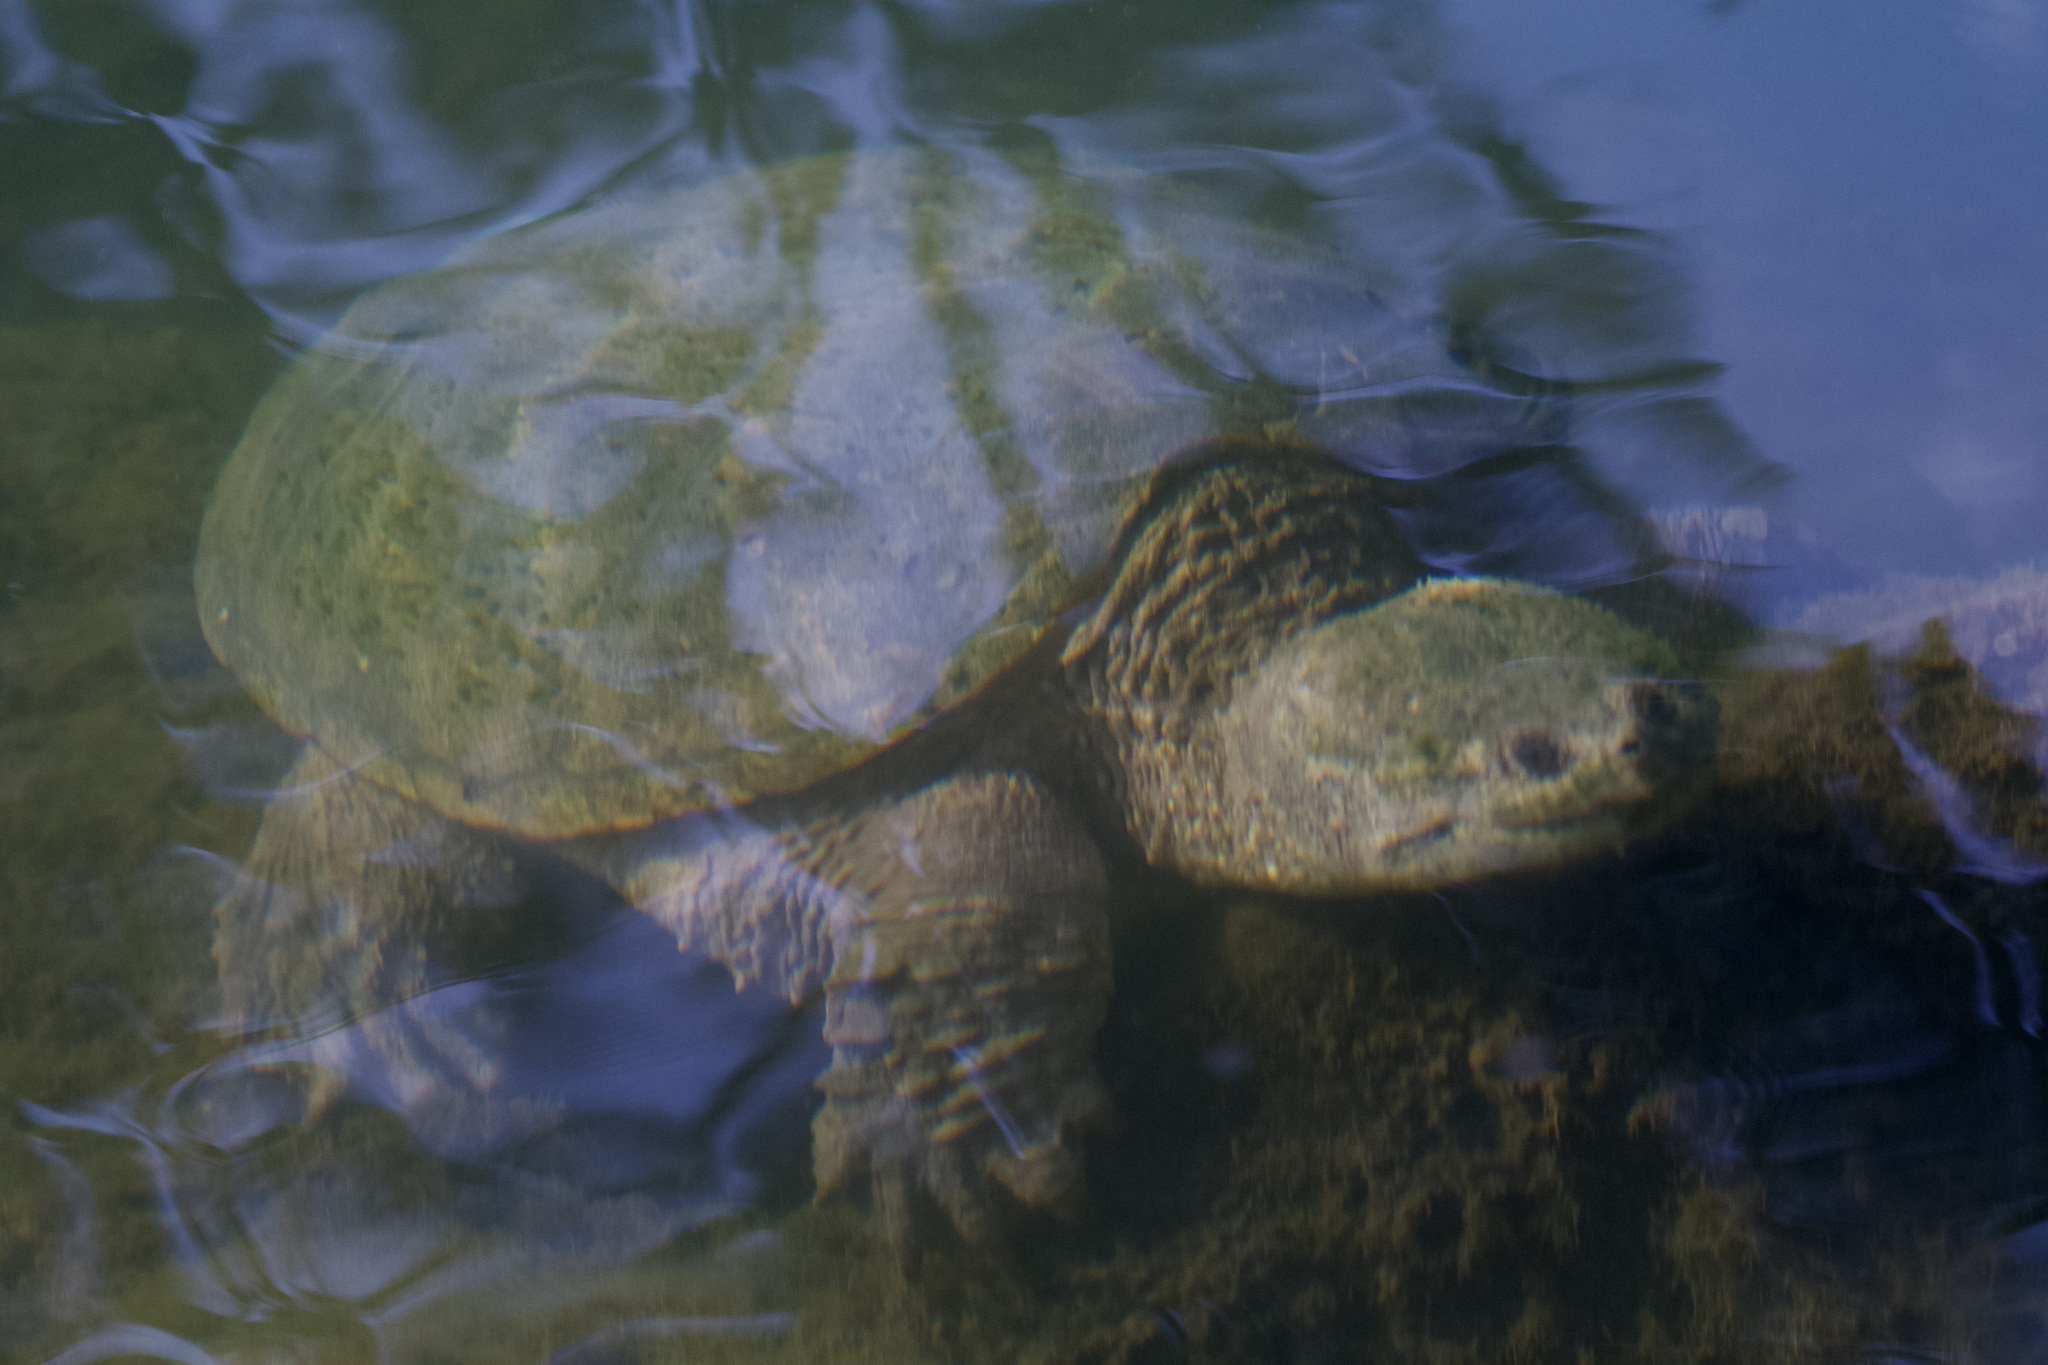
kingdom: Animalia
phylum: Chordata
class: Testudines
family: Chelydridae
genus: Chelydra
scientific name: Chelydra serpentina
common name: Common snapping turtle
